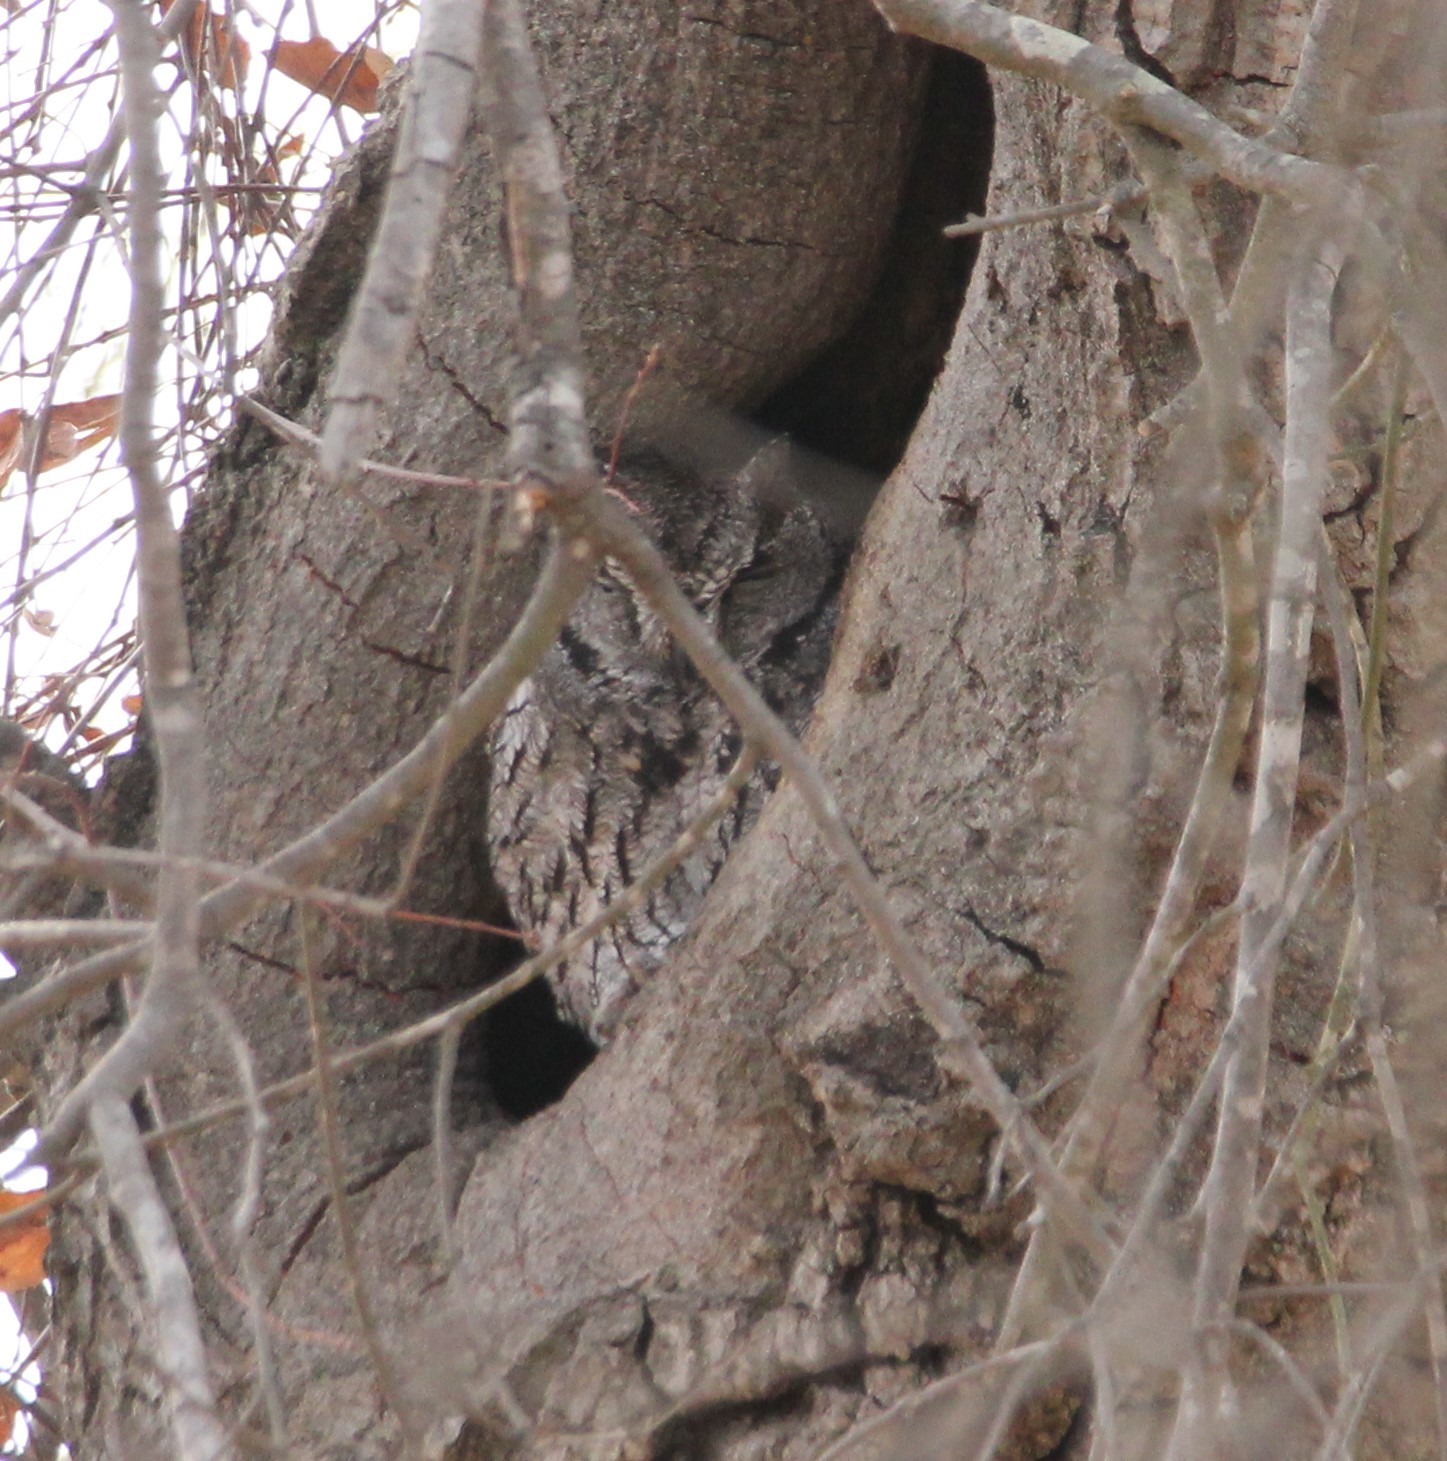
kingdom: Animalia
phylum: Chordata
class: Aves
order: Strigiformes
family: Strigidae
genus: Megascops
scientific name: Megascops kennicottii
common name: Western screech-owl
